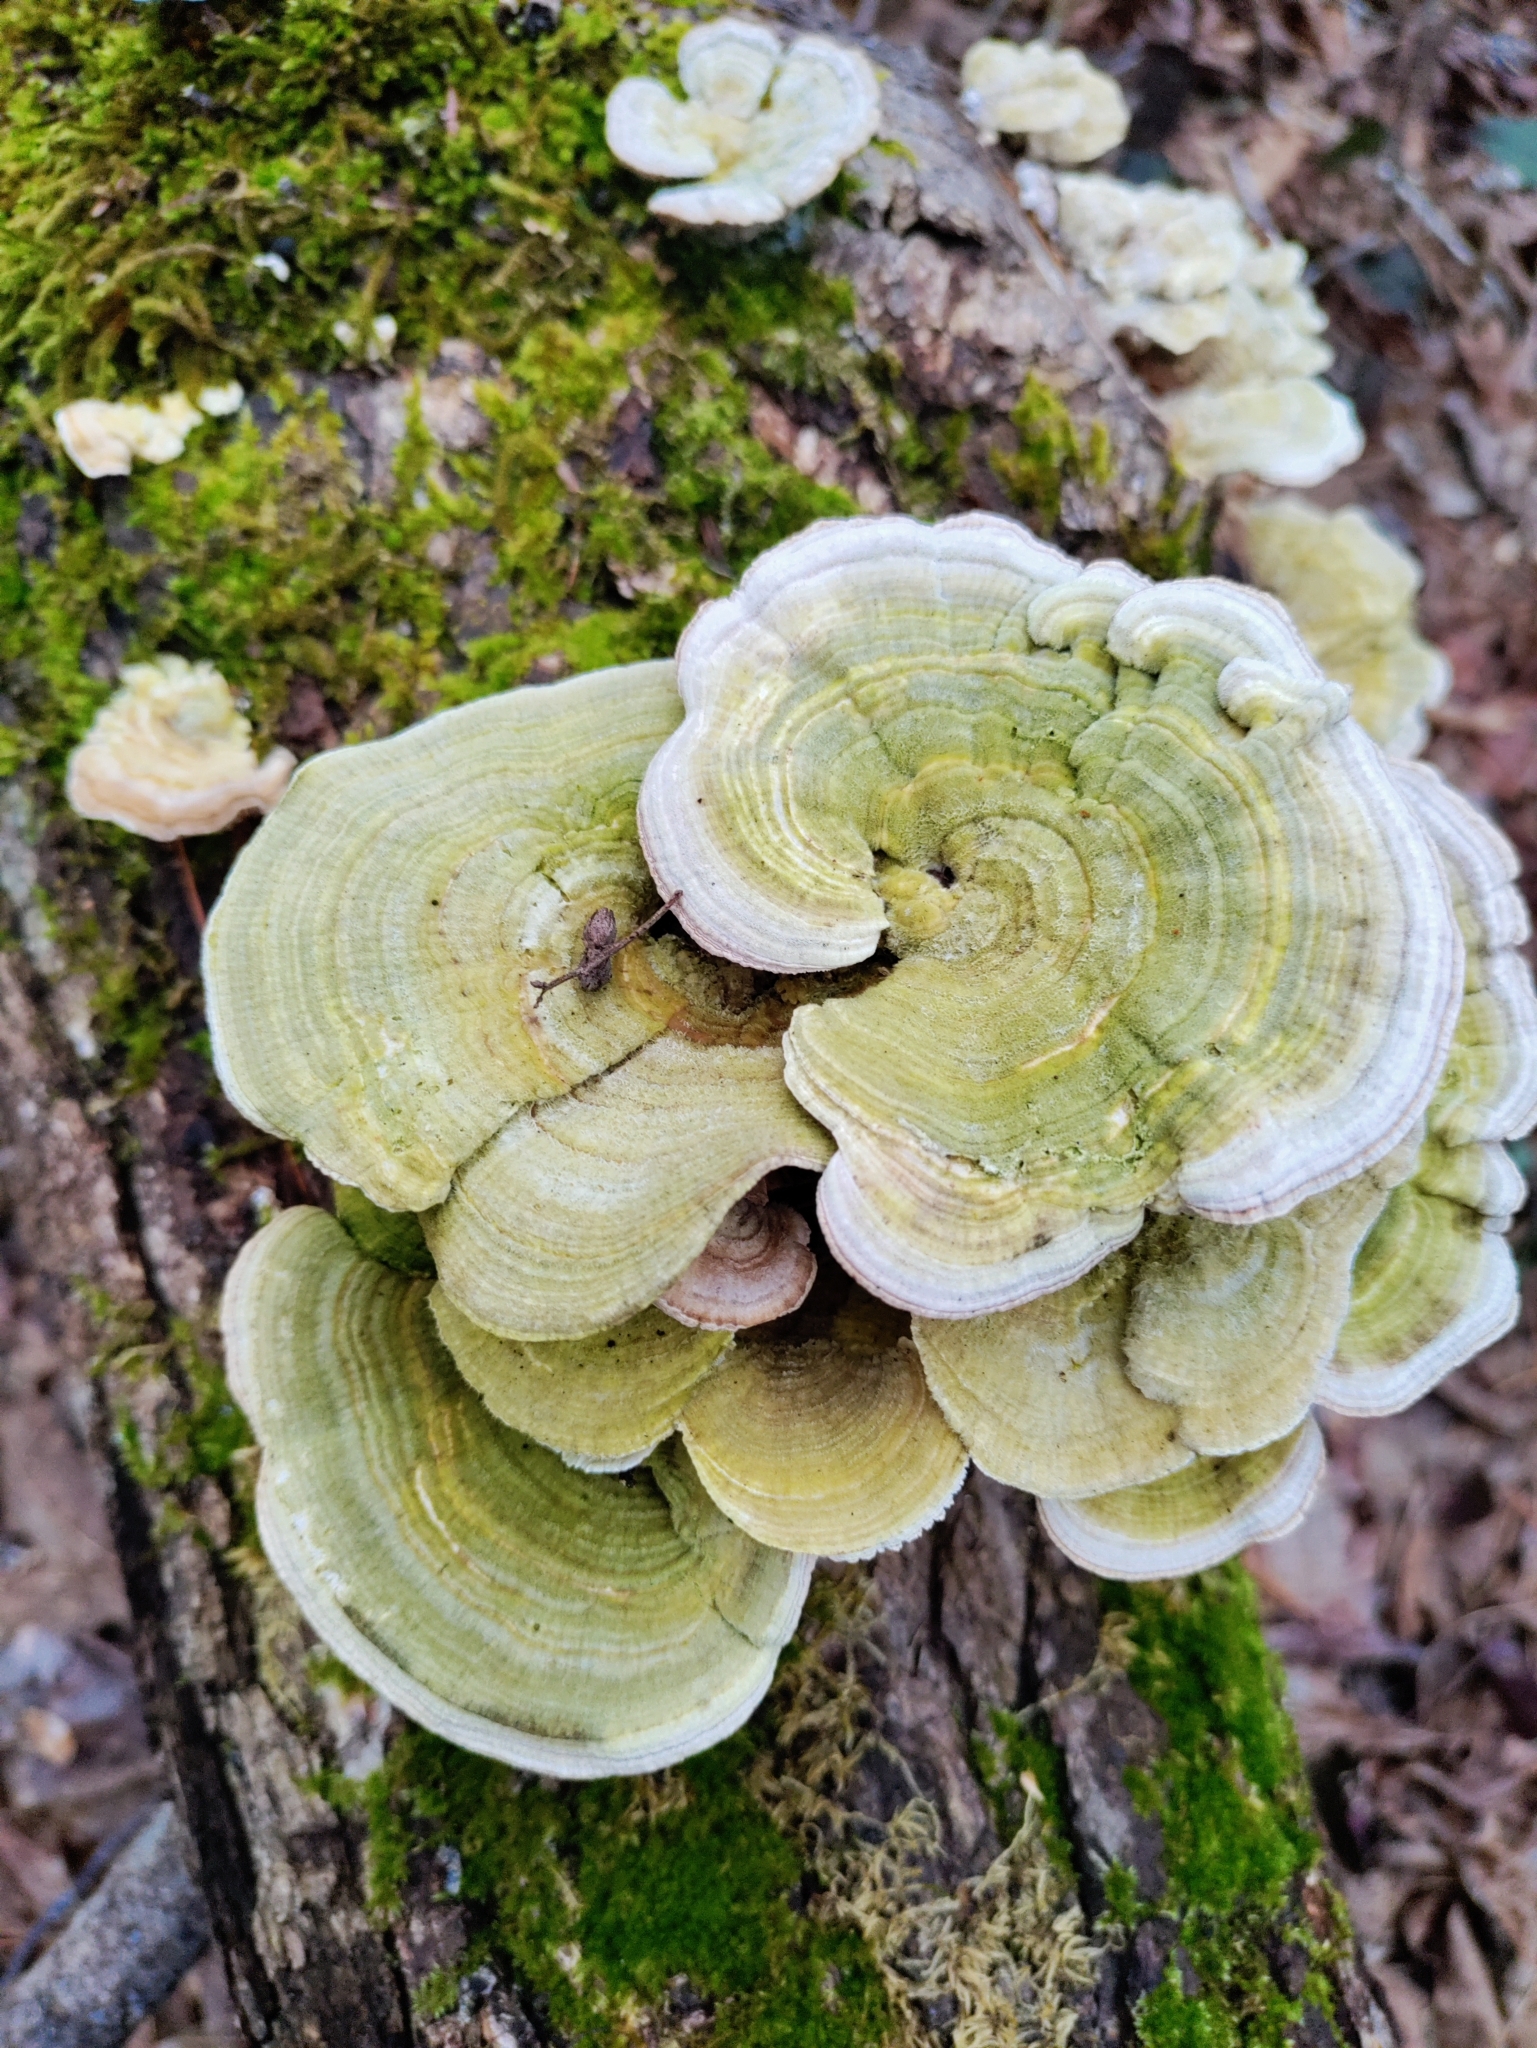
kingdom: Fungi
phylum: Basidiomycota
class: Agaricomycetes
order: Polyporales
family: Polyporaceae
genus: Lenzites
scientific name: Lenzites betulinus
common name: Birch mazegill
